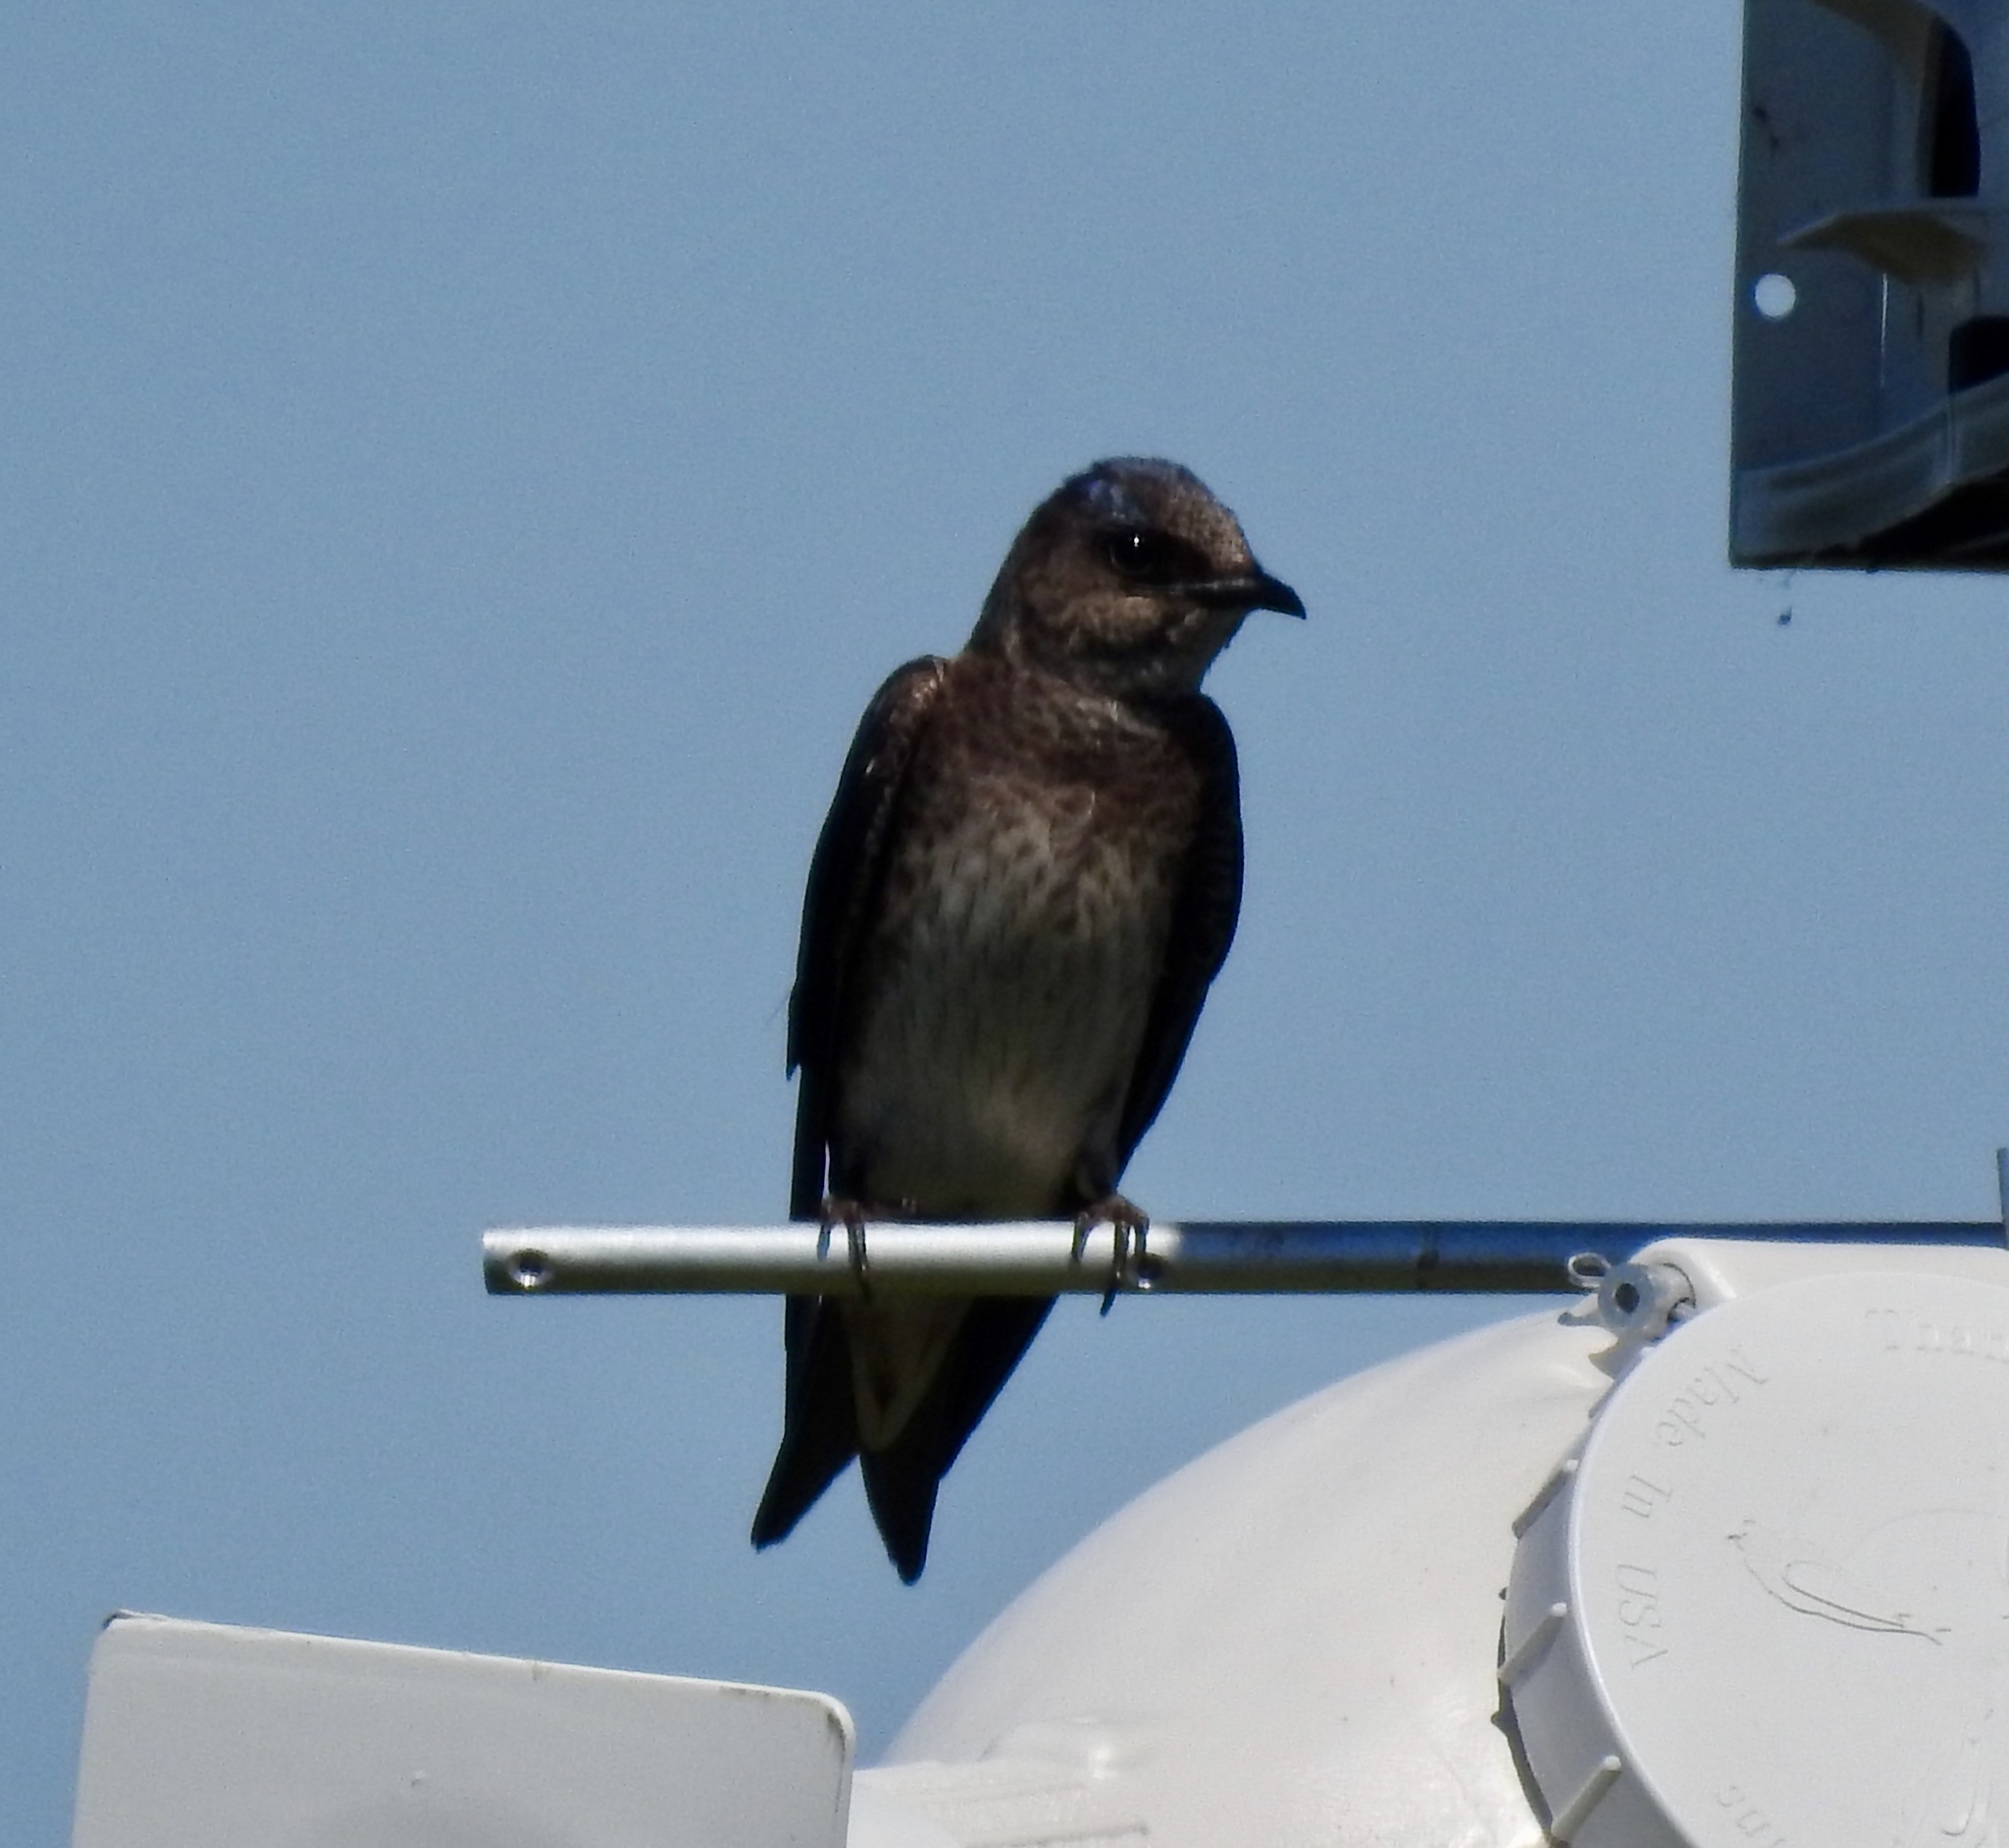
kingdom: Animalia
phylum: Chordata
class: Aves
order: Passeriformes
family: Hirundinidae
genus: Progne
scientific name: Progne subis
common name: Purple martin
